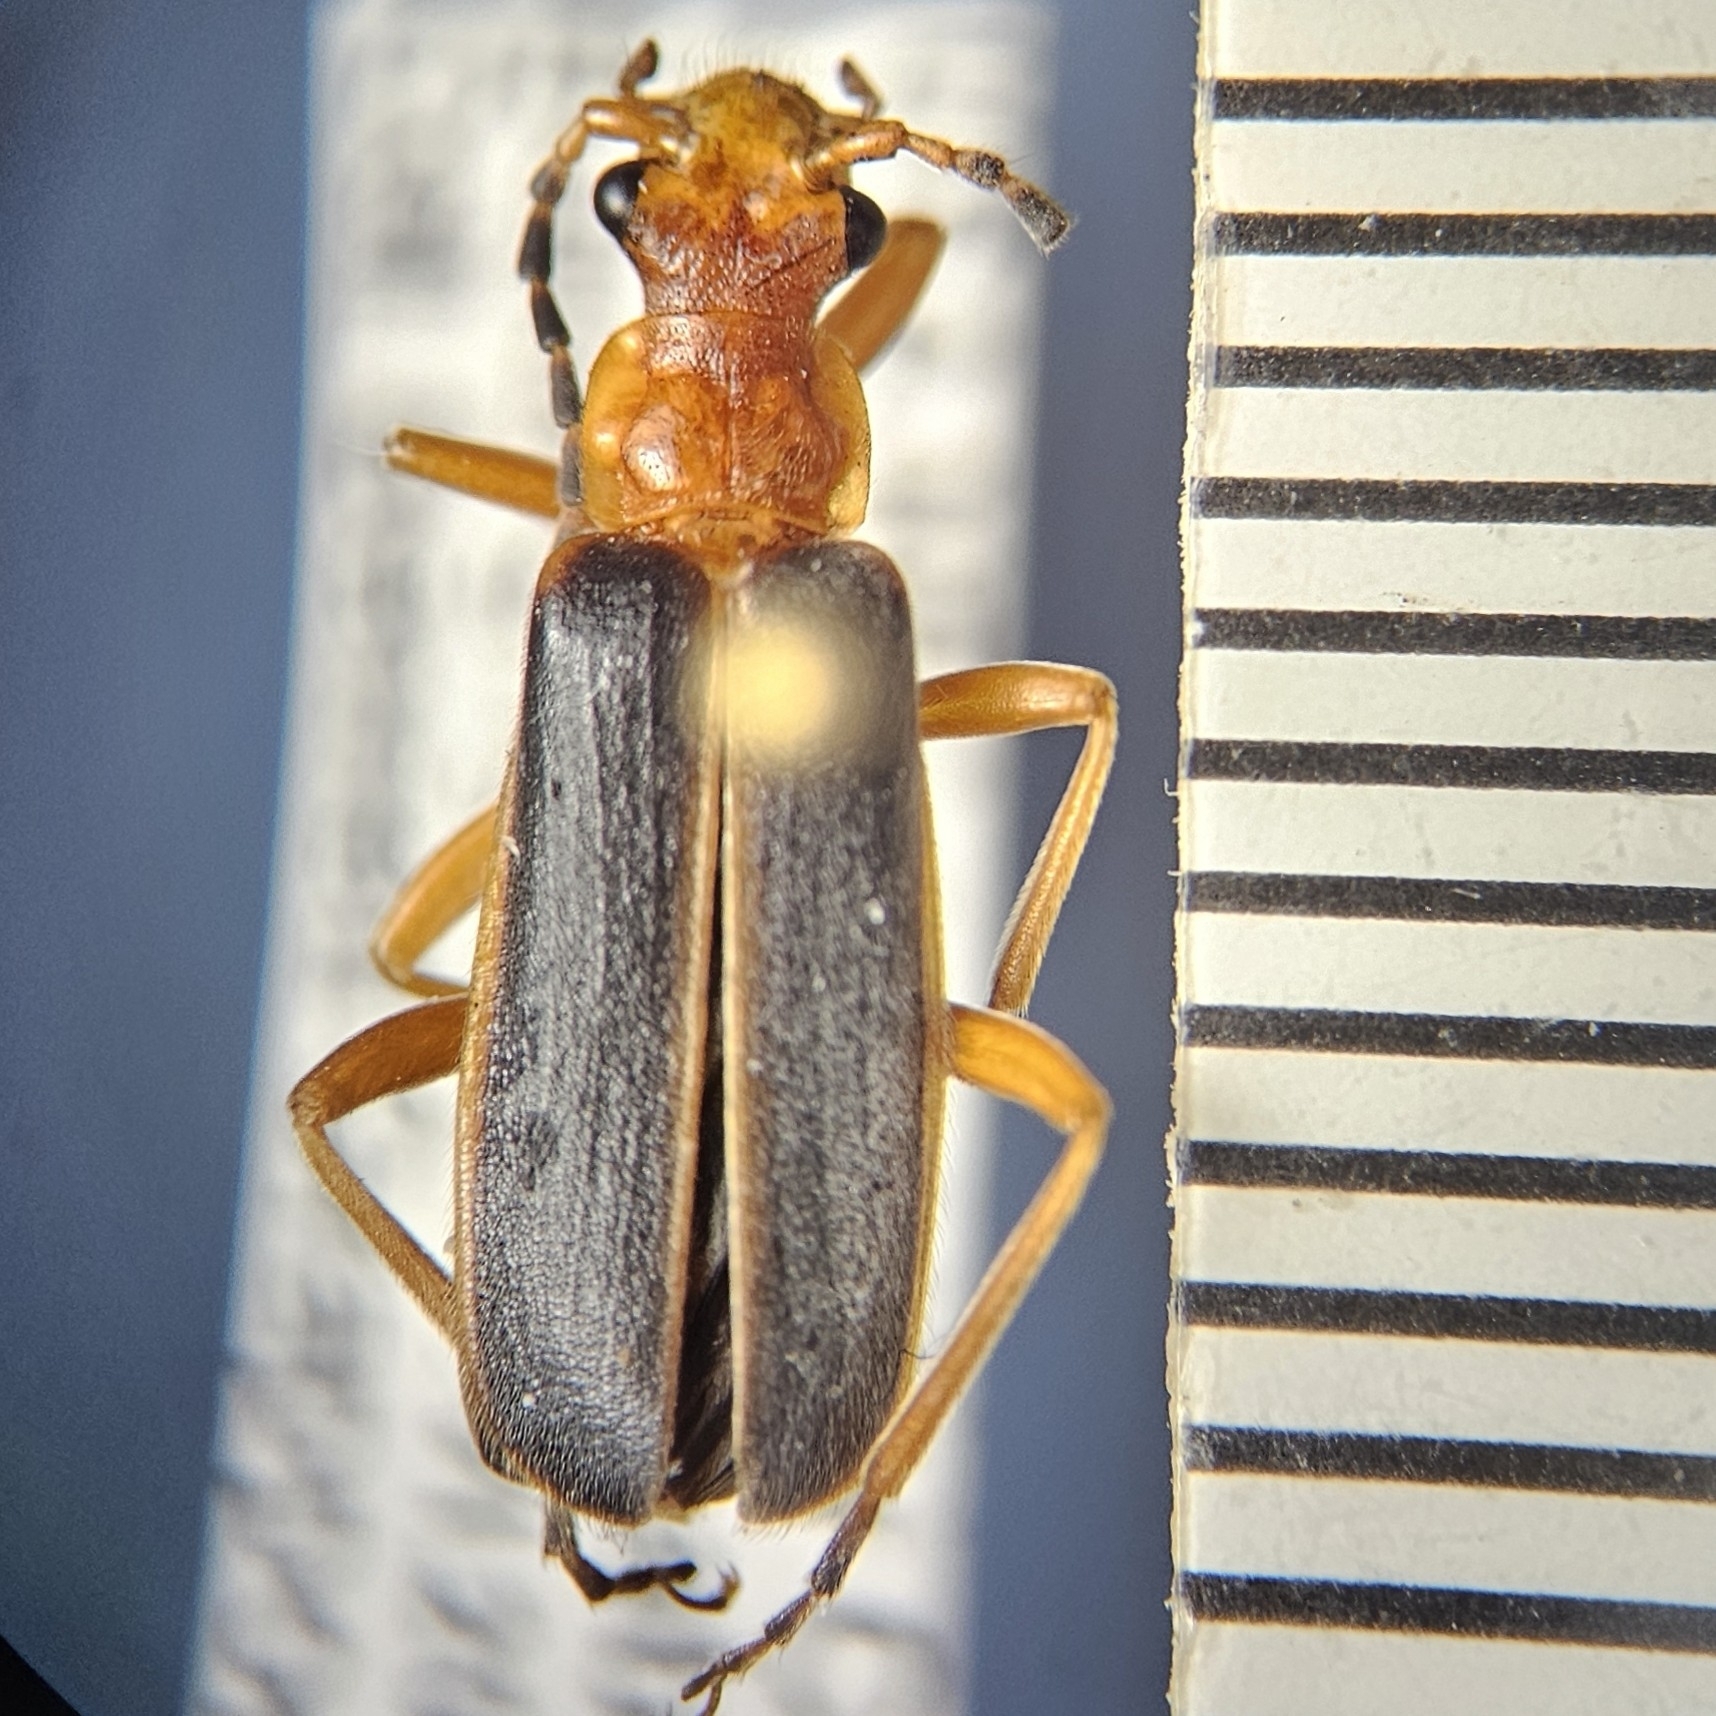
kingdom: Animalia
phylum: Arthropoda
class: Insecta
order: Coleoptera
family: Cantharidae
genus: Podabrus
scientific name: Podabrus tomentosus
